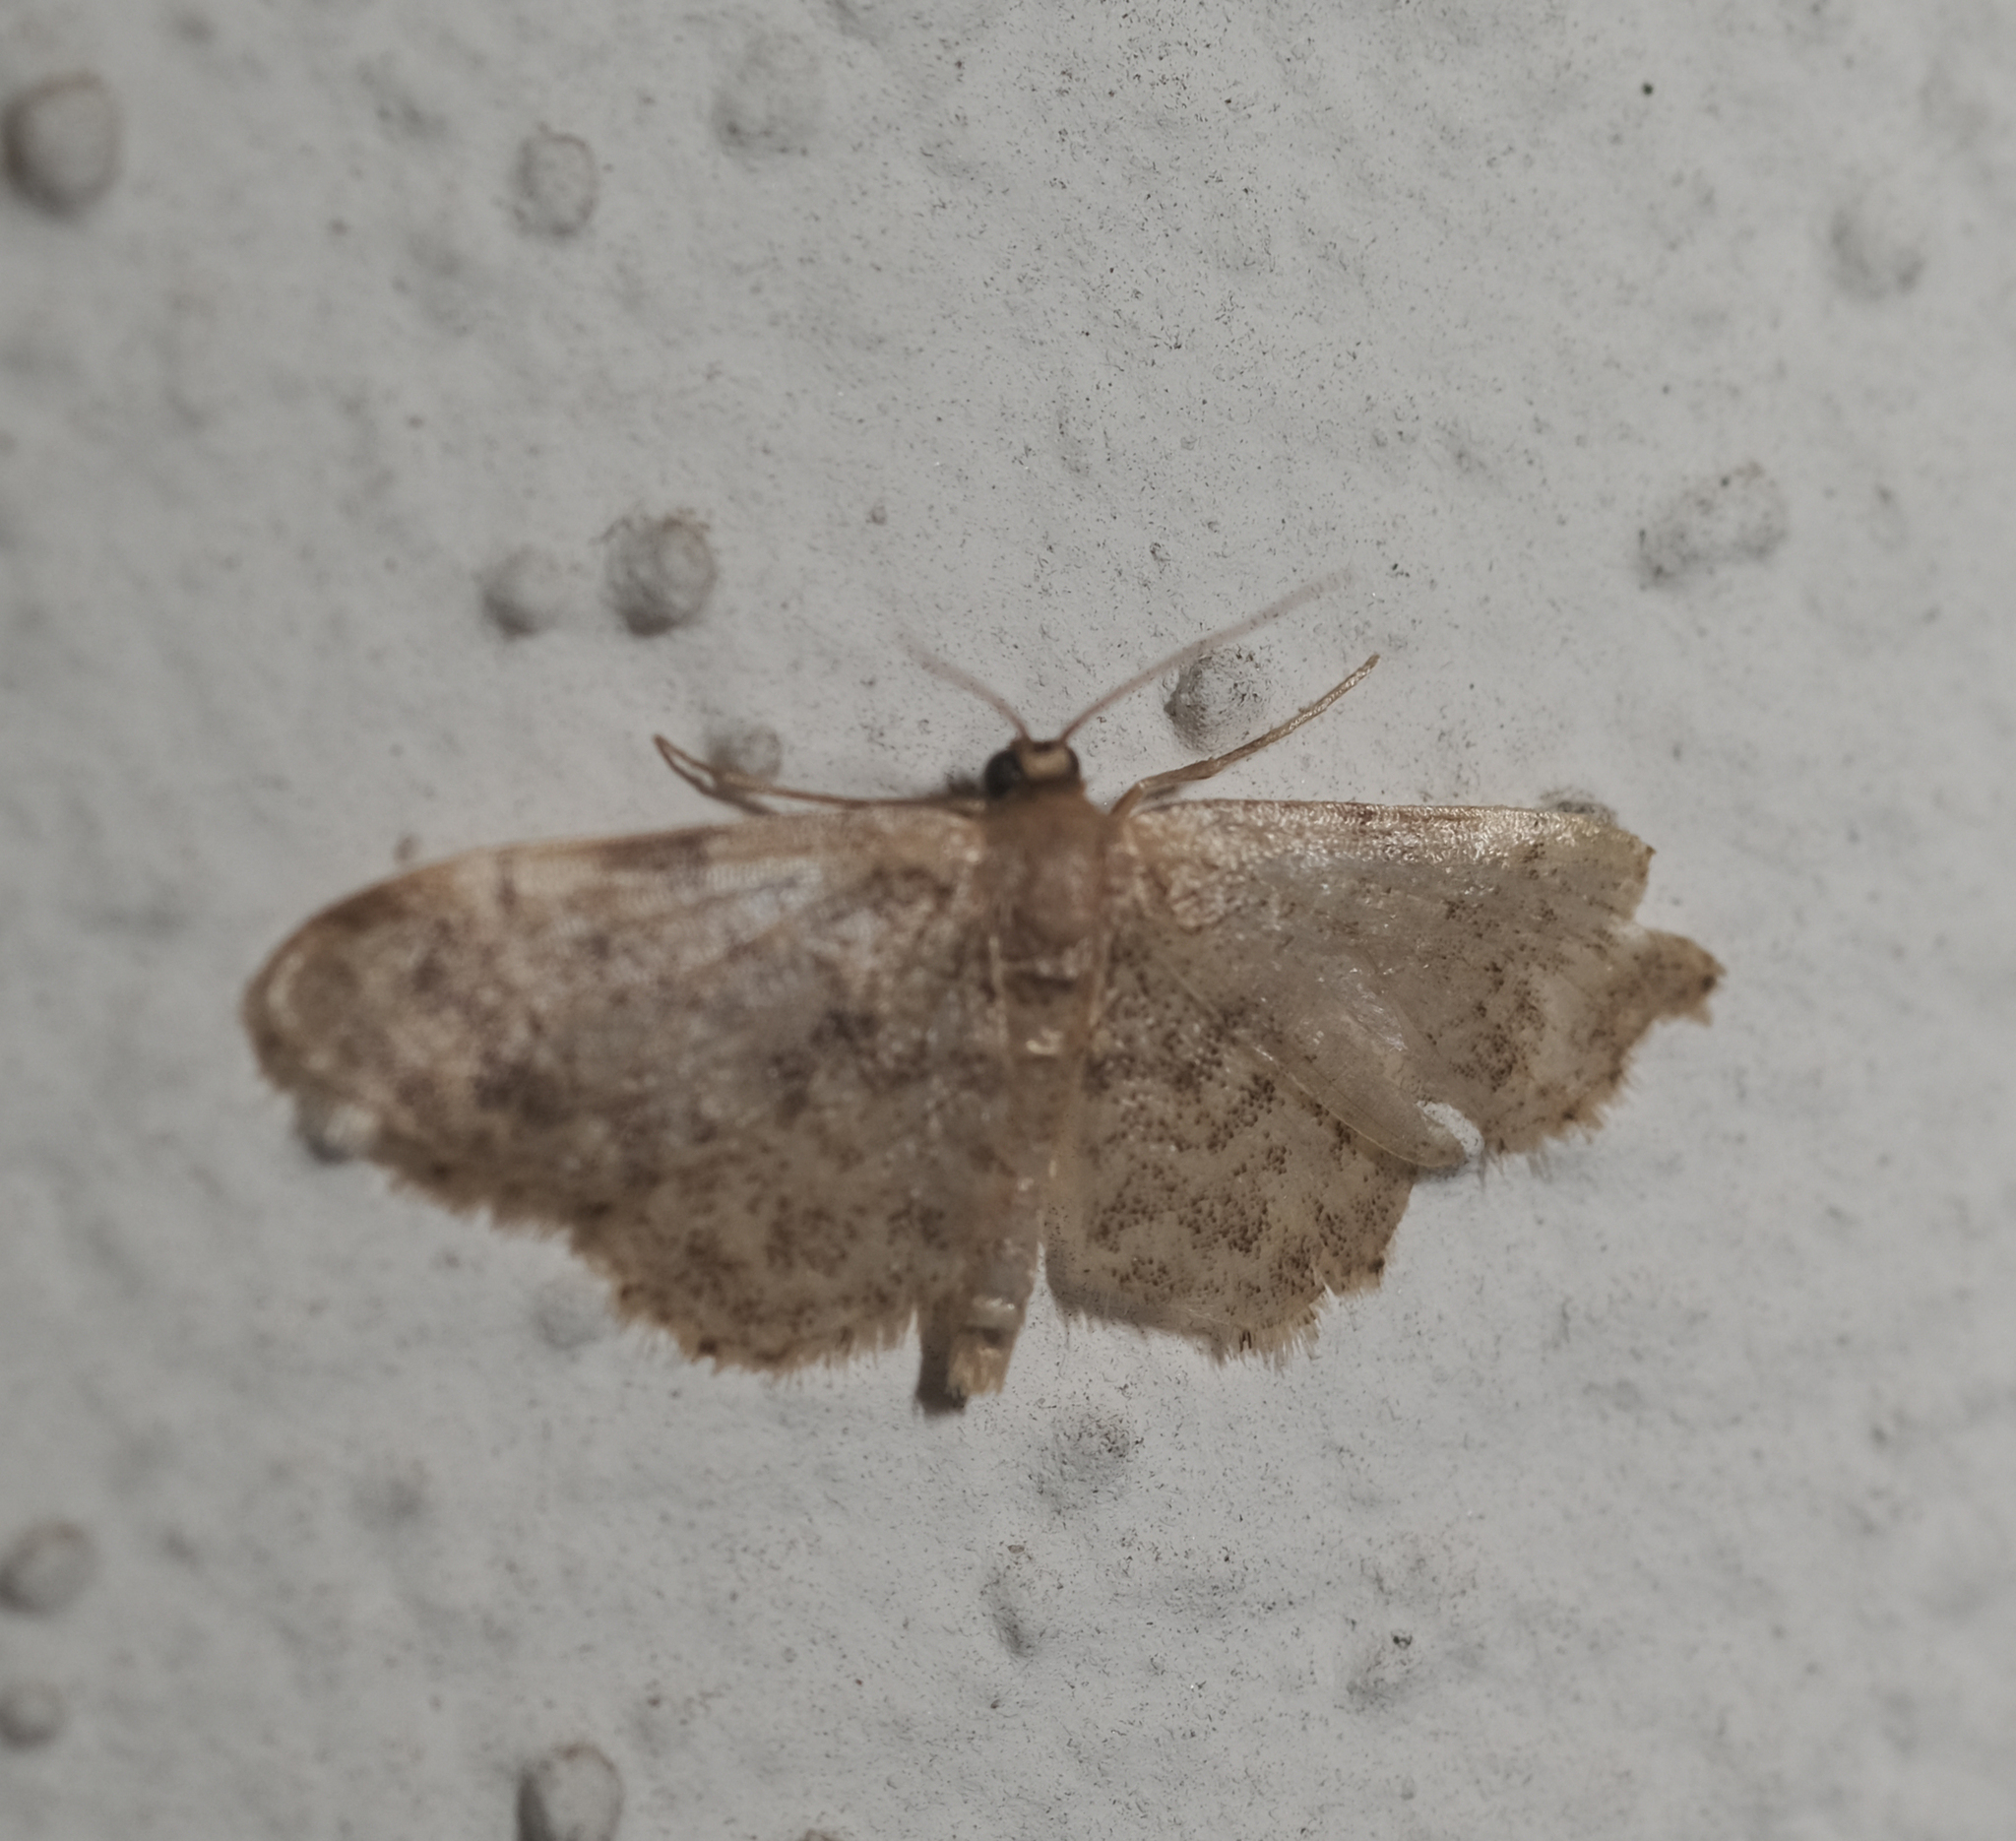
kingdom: Animalia
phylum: Arthropoda
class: Insecta
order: Lepidoptera
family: Geometridae
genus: Idaea
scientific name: Idaea inquinata
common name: Rusty wave
